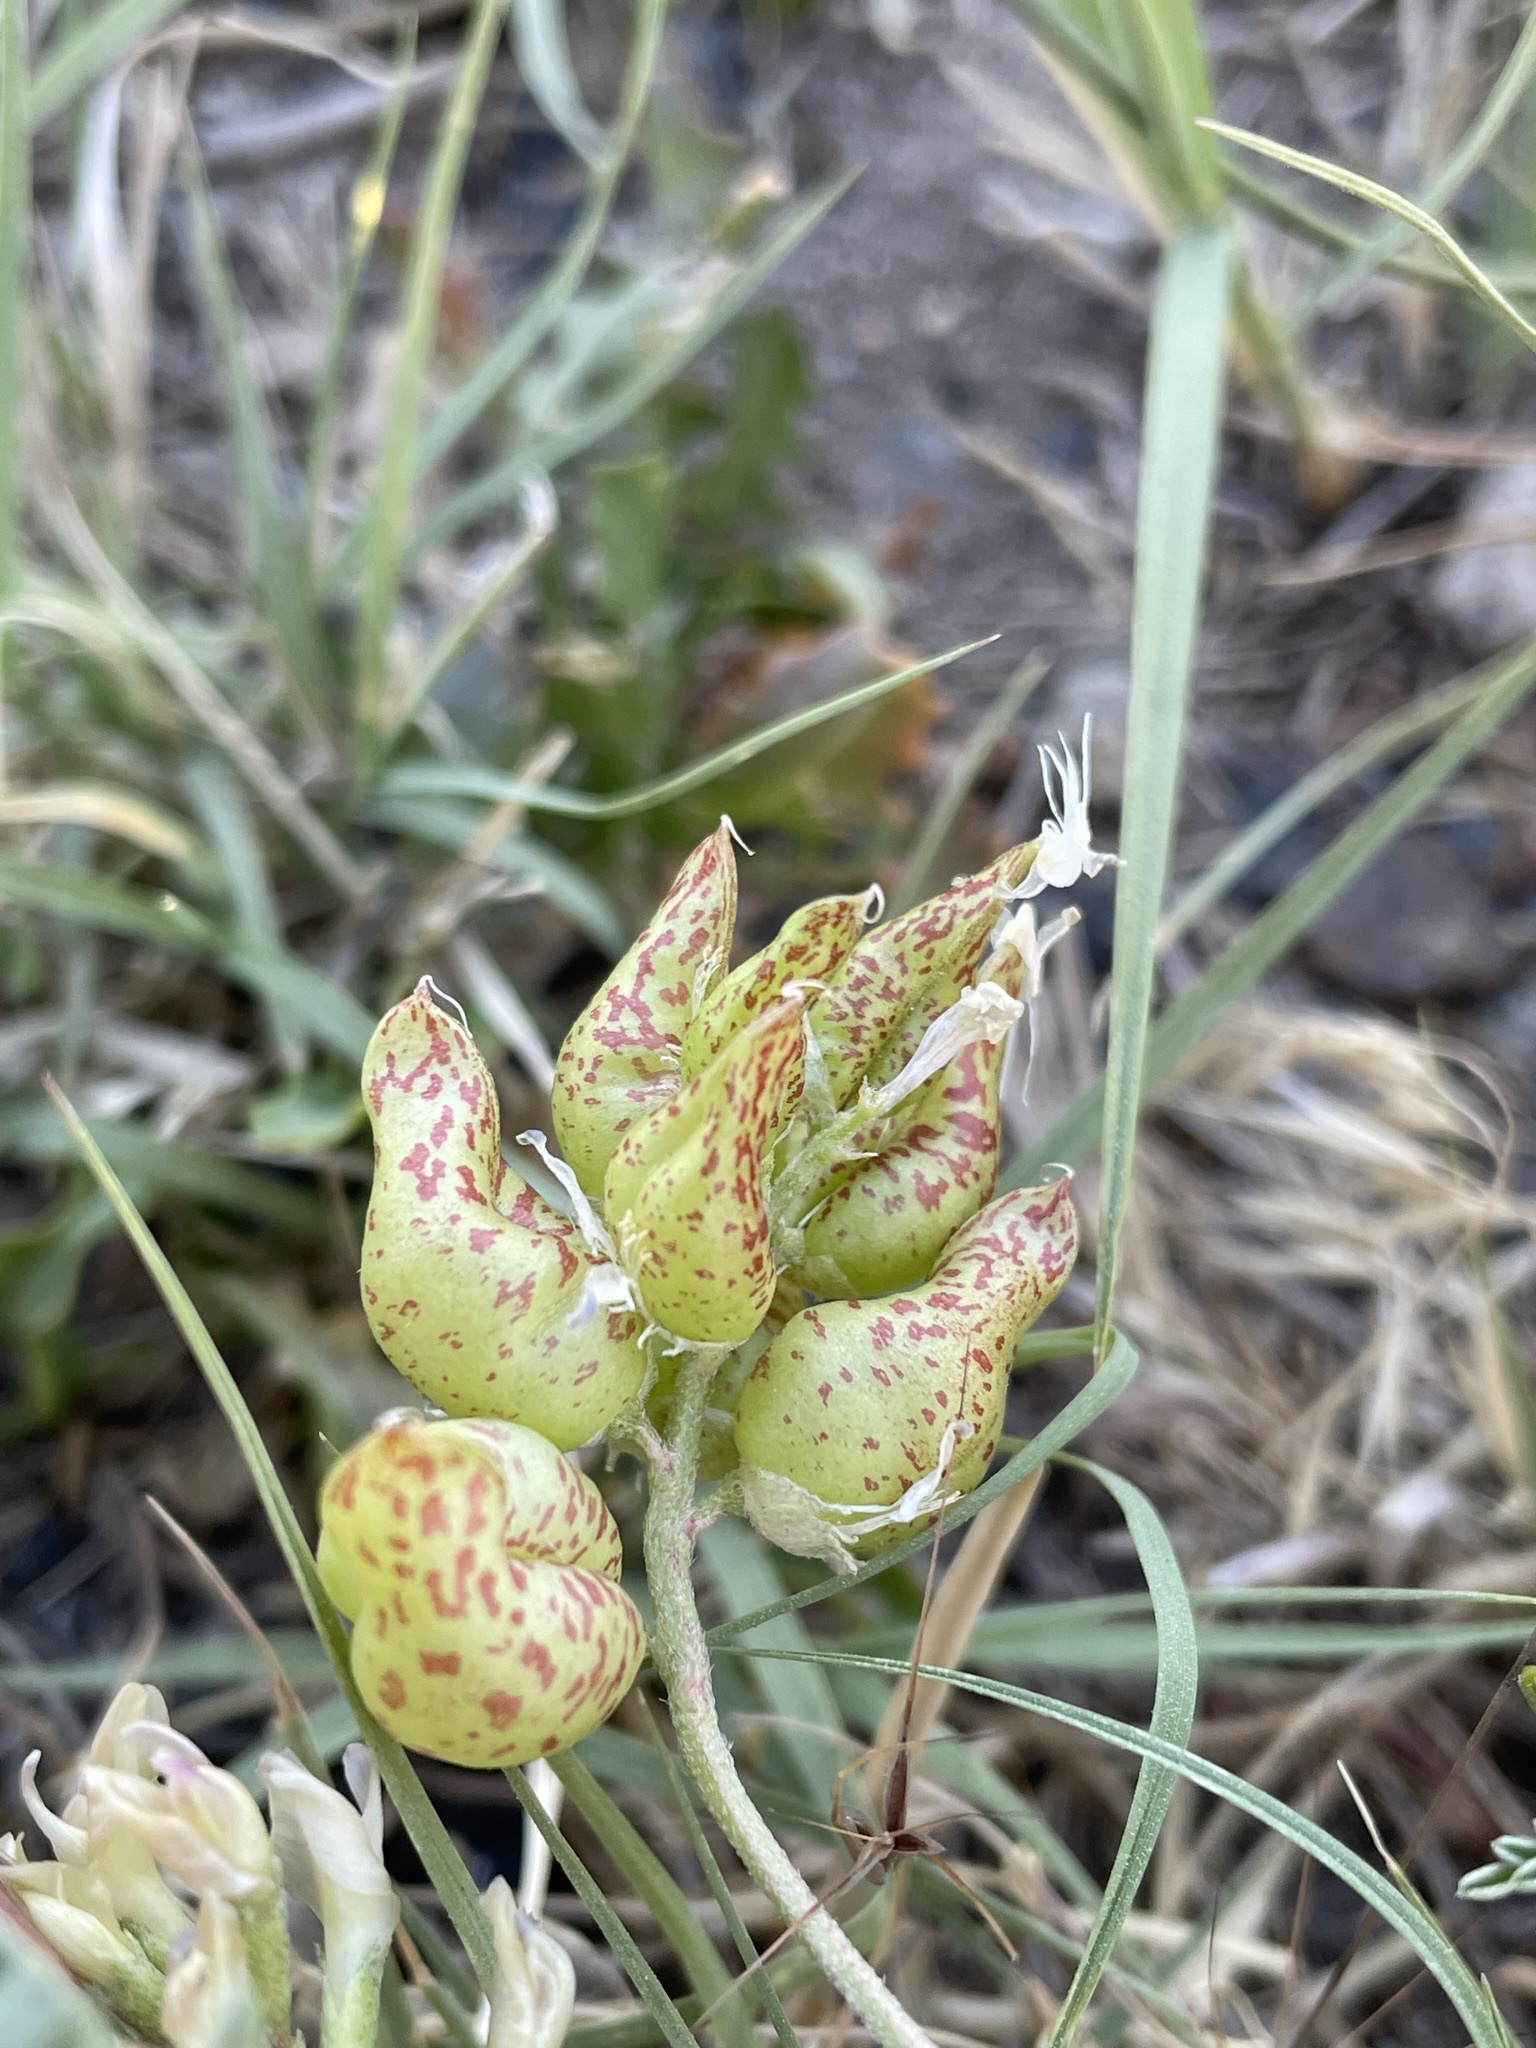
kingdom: Plantae
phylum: Tracheophyta
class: Magnoliopsida
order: Fabales
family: Fabaceae
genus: Astragalus
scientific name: Astragalus lentiginosus
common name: Freckled milkvetch
